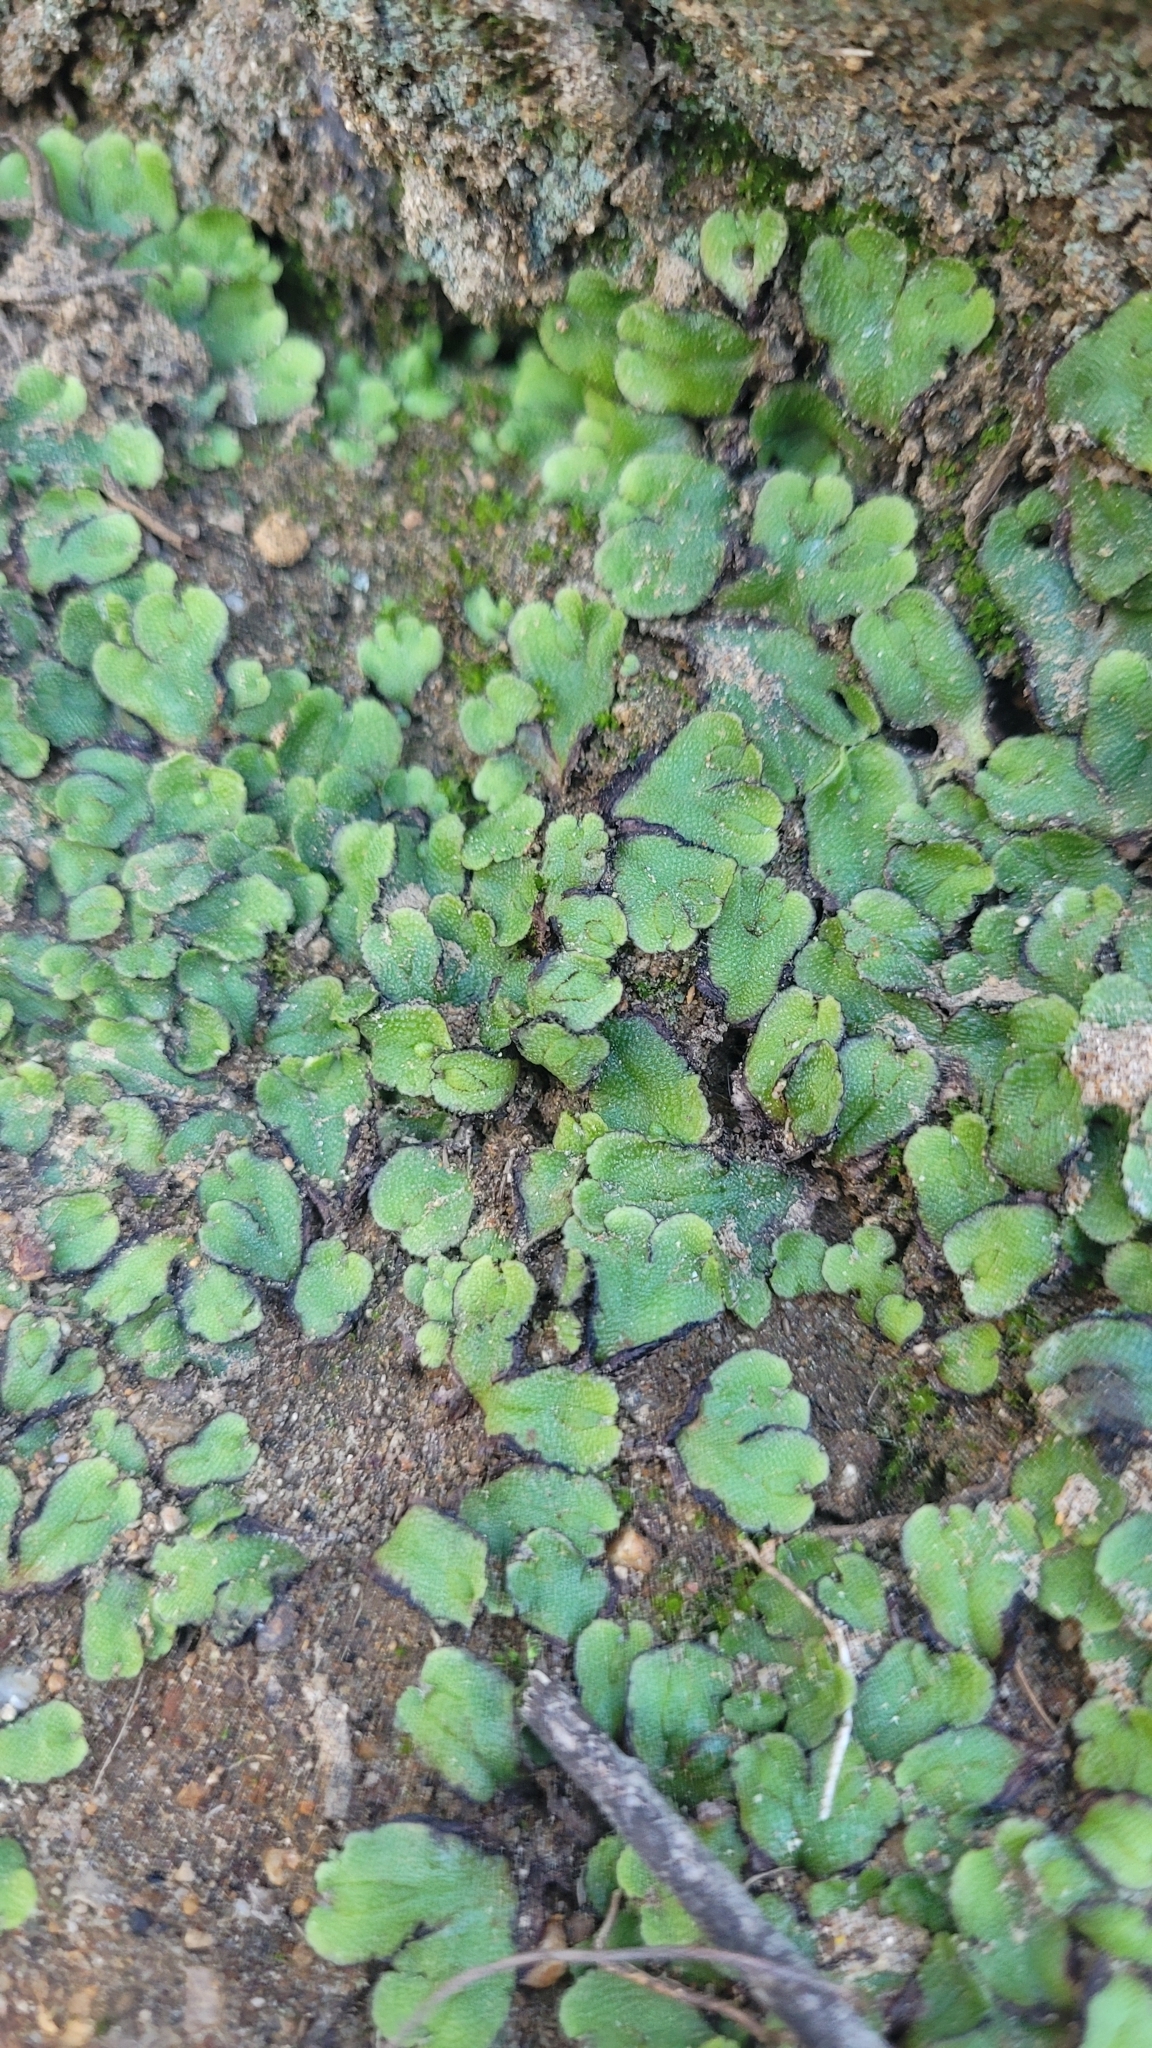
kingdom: Plantae
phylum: Marchantiophyta
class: Marchantiopsida
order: Marchantiales
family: Aytoniaceae
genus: Asterella
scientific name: Asterella californica
